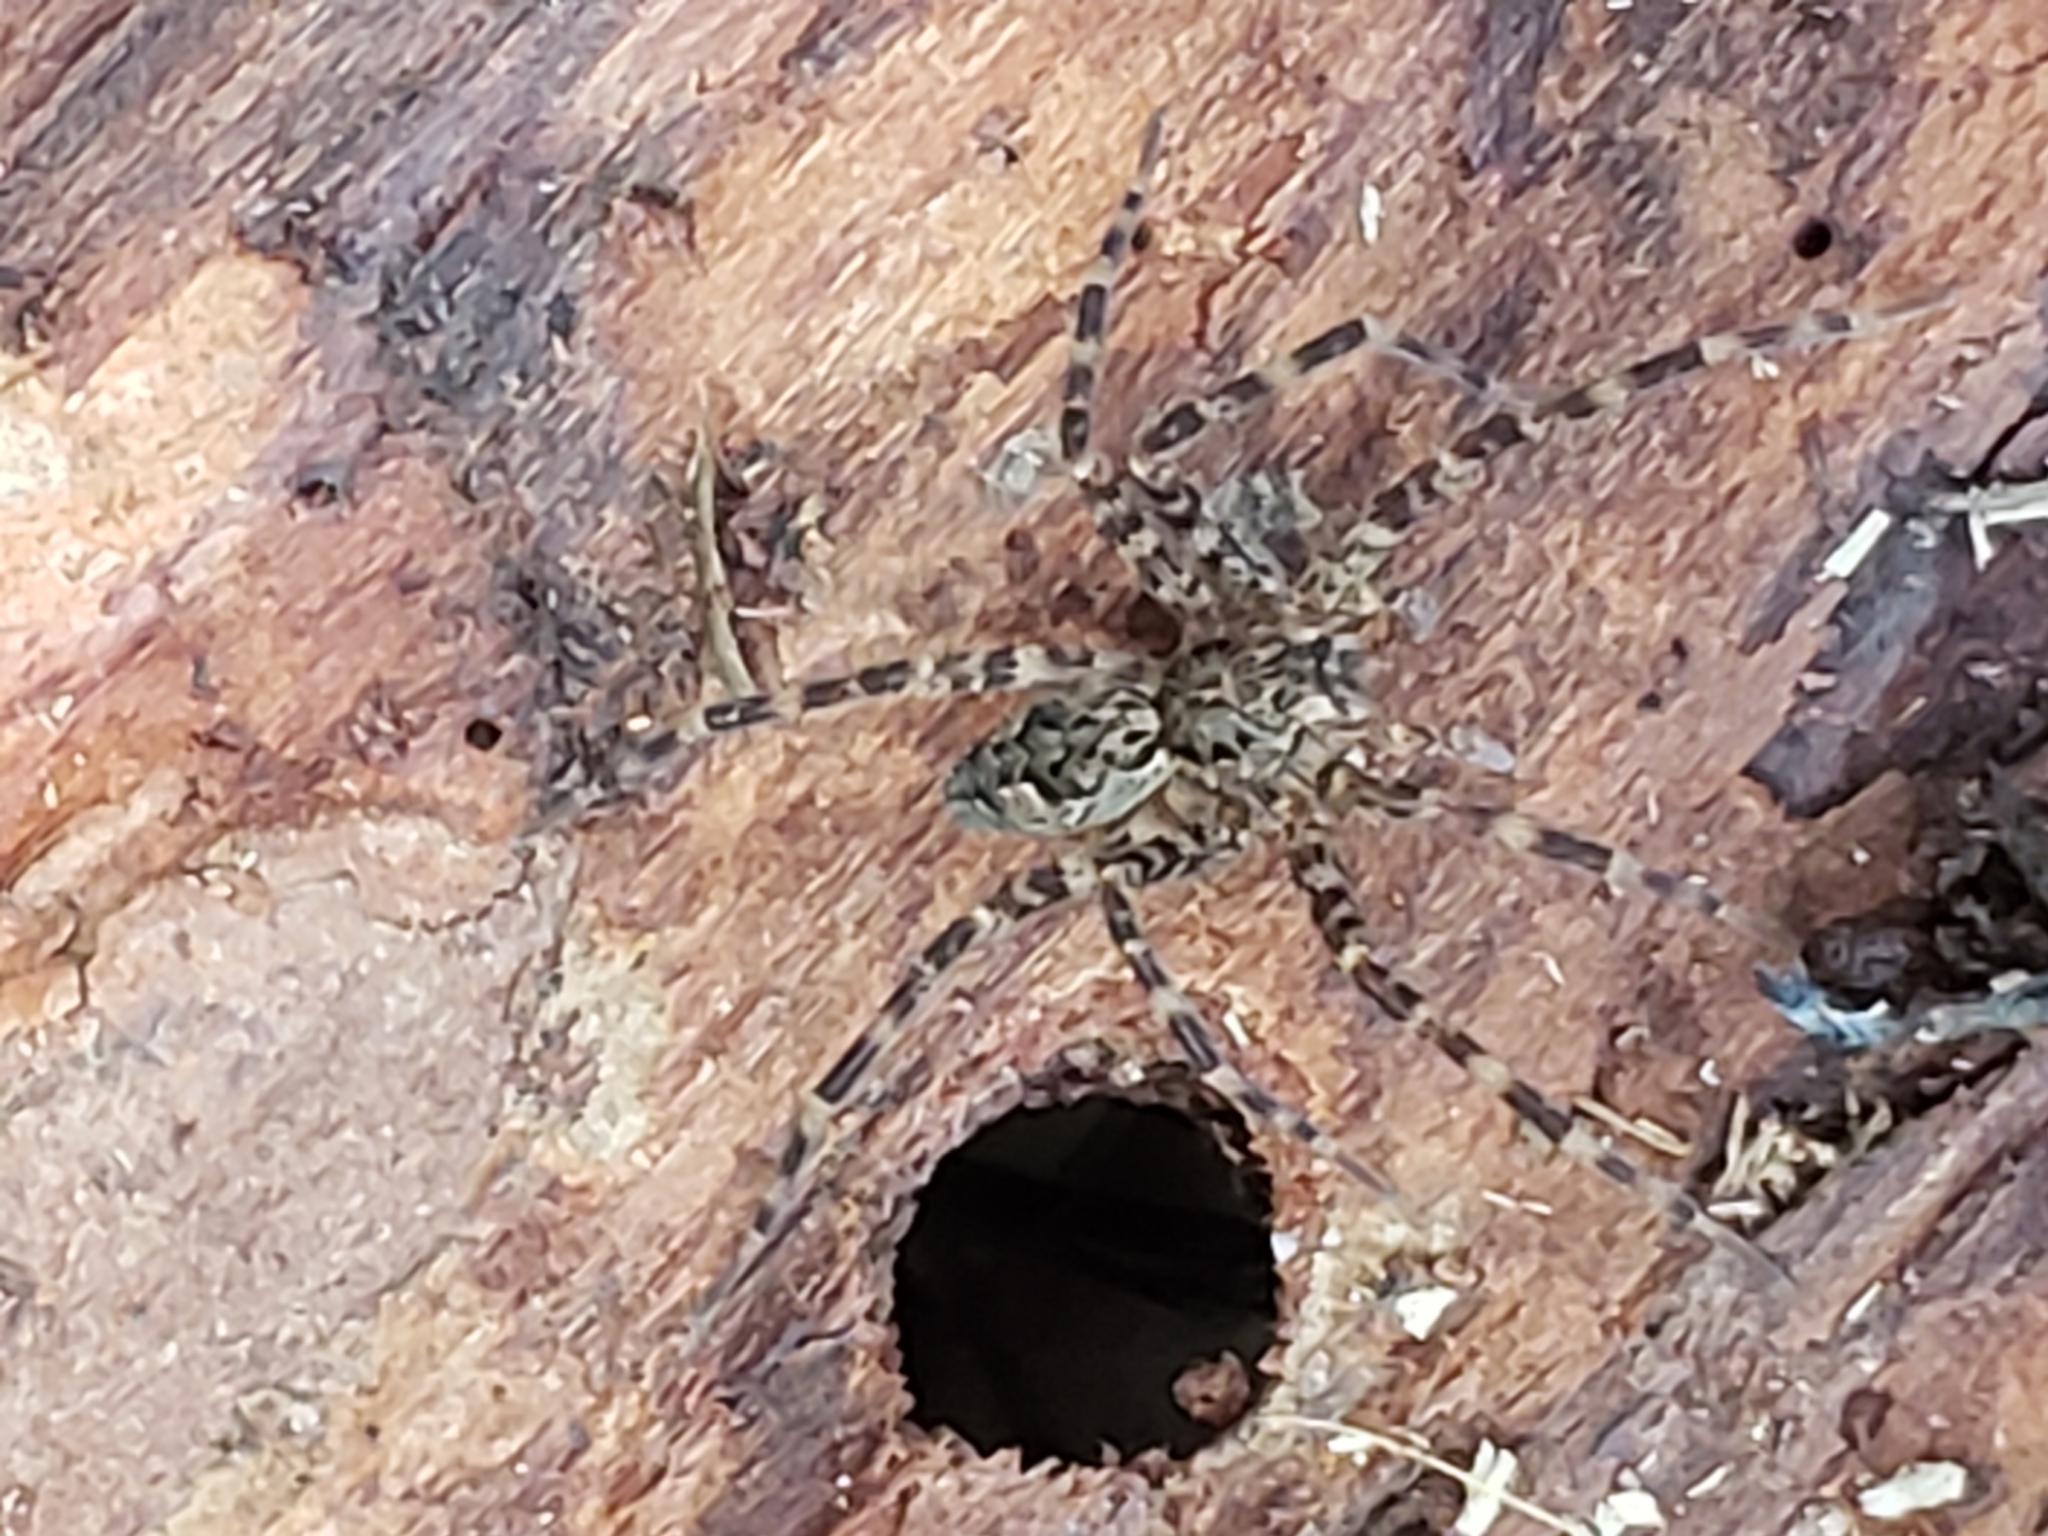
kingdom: Animalia
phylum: Arthropoda
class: Arachnida
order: Araneae
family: Pisauridae
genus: Dolomedes
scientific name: Dolomedes tenebrosus
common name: Dark fishing spider
